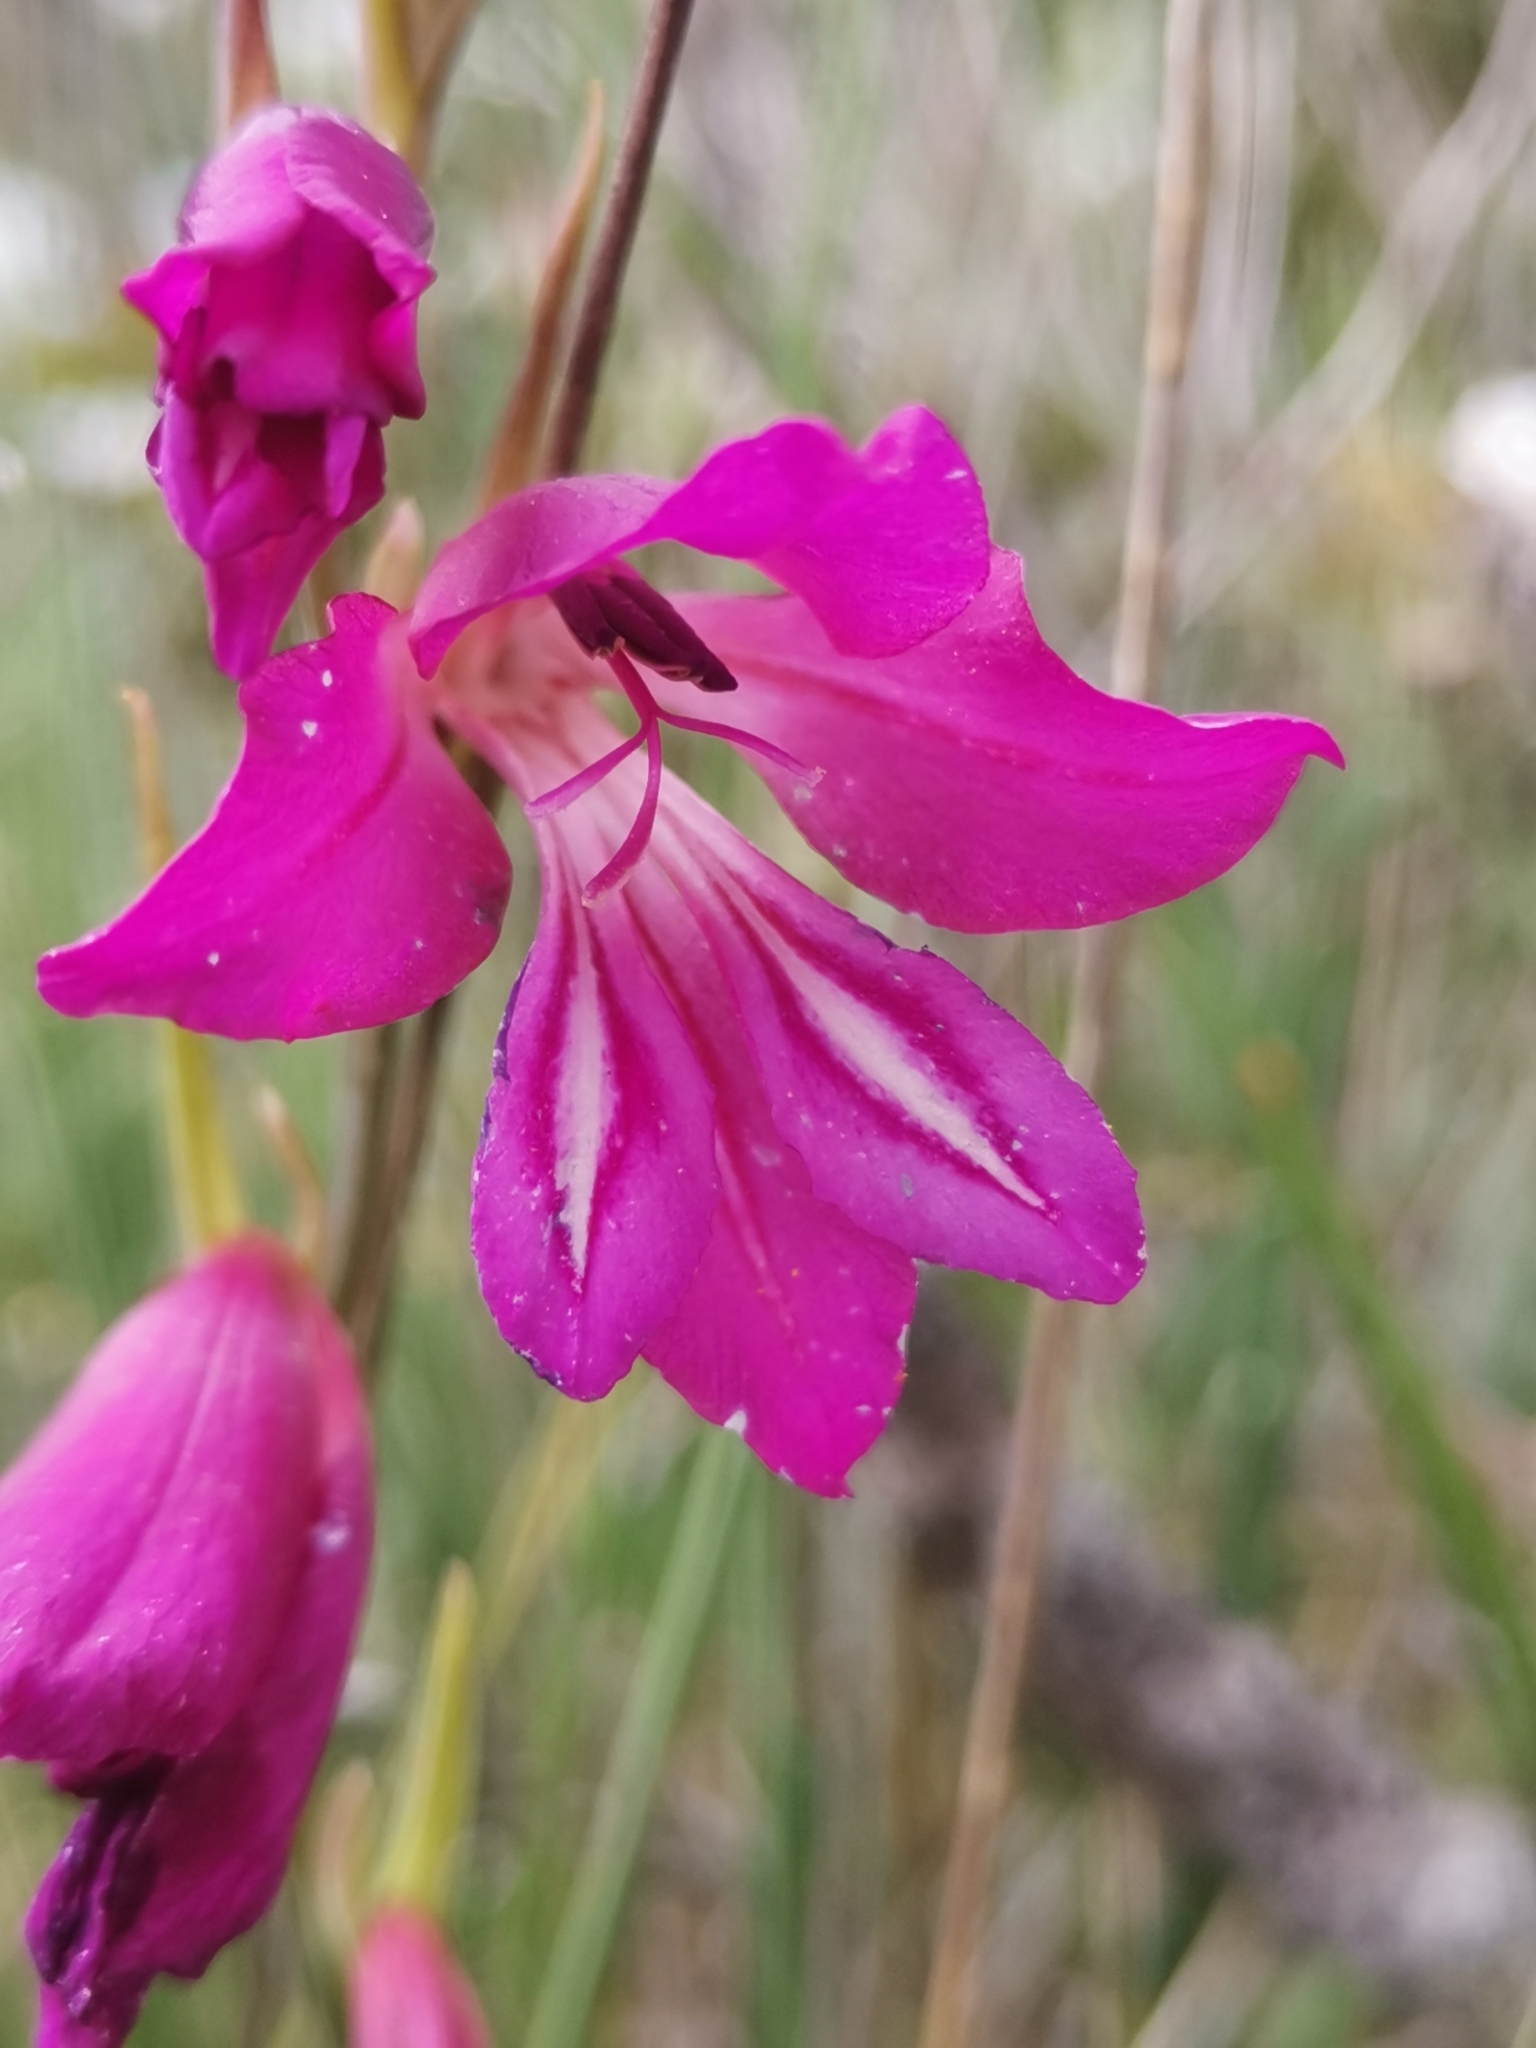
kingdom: Plantae
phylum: Tracheophyta
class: Liliopsida
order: Asparagales
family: Iridaceae
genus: Gladiolus
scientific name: Gladiolus illyricus
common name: Wild gladiolus
